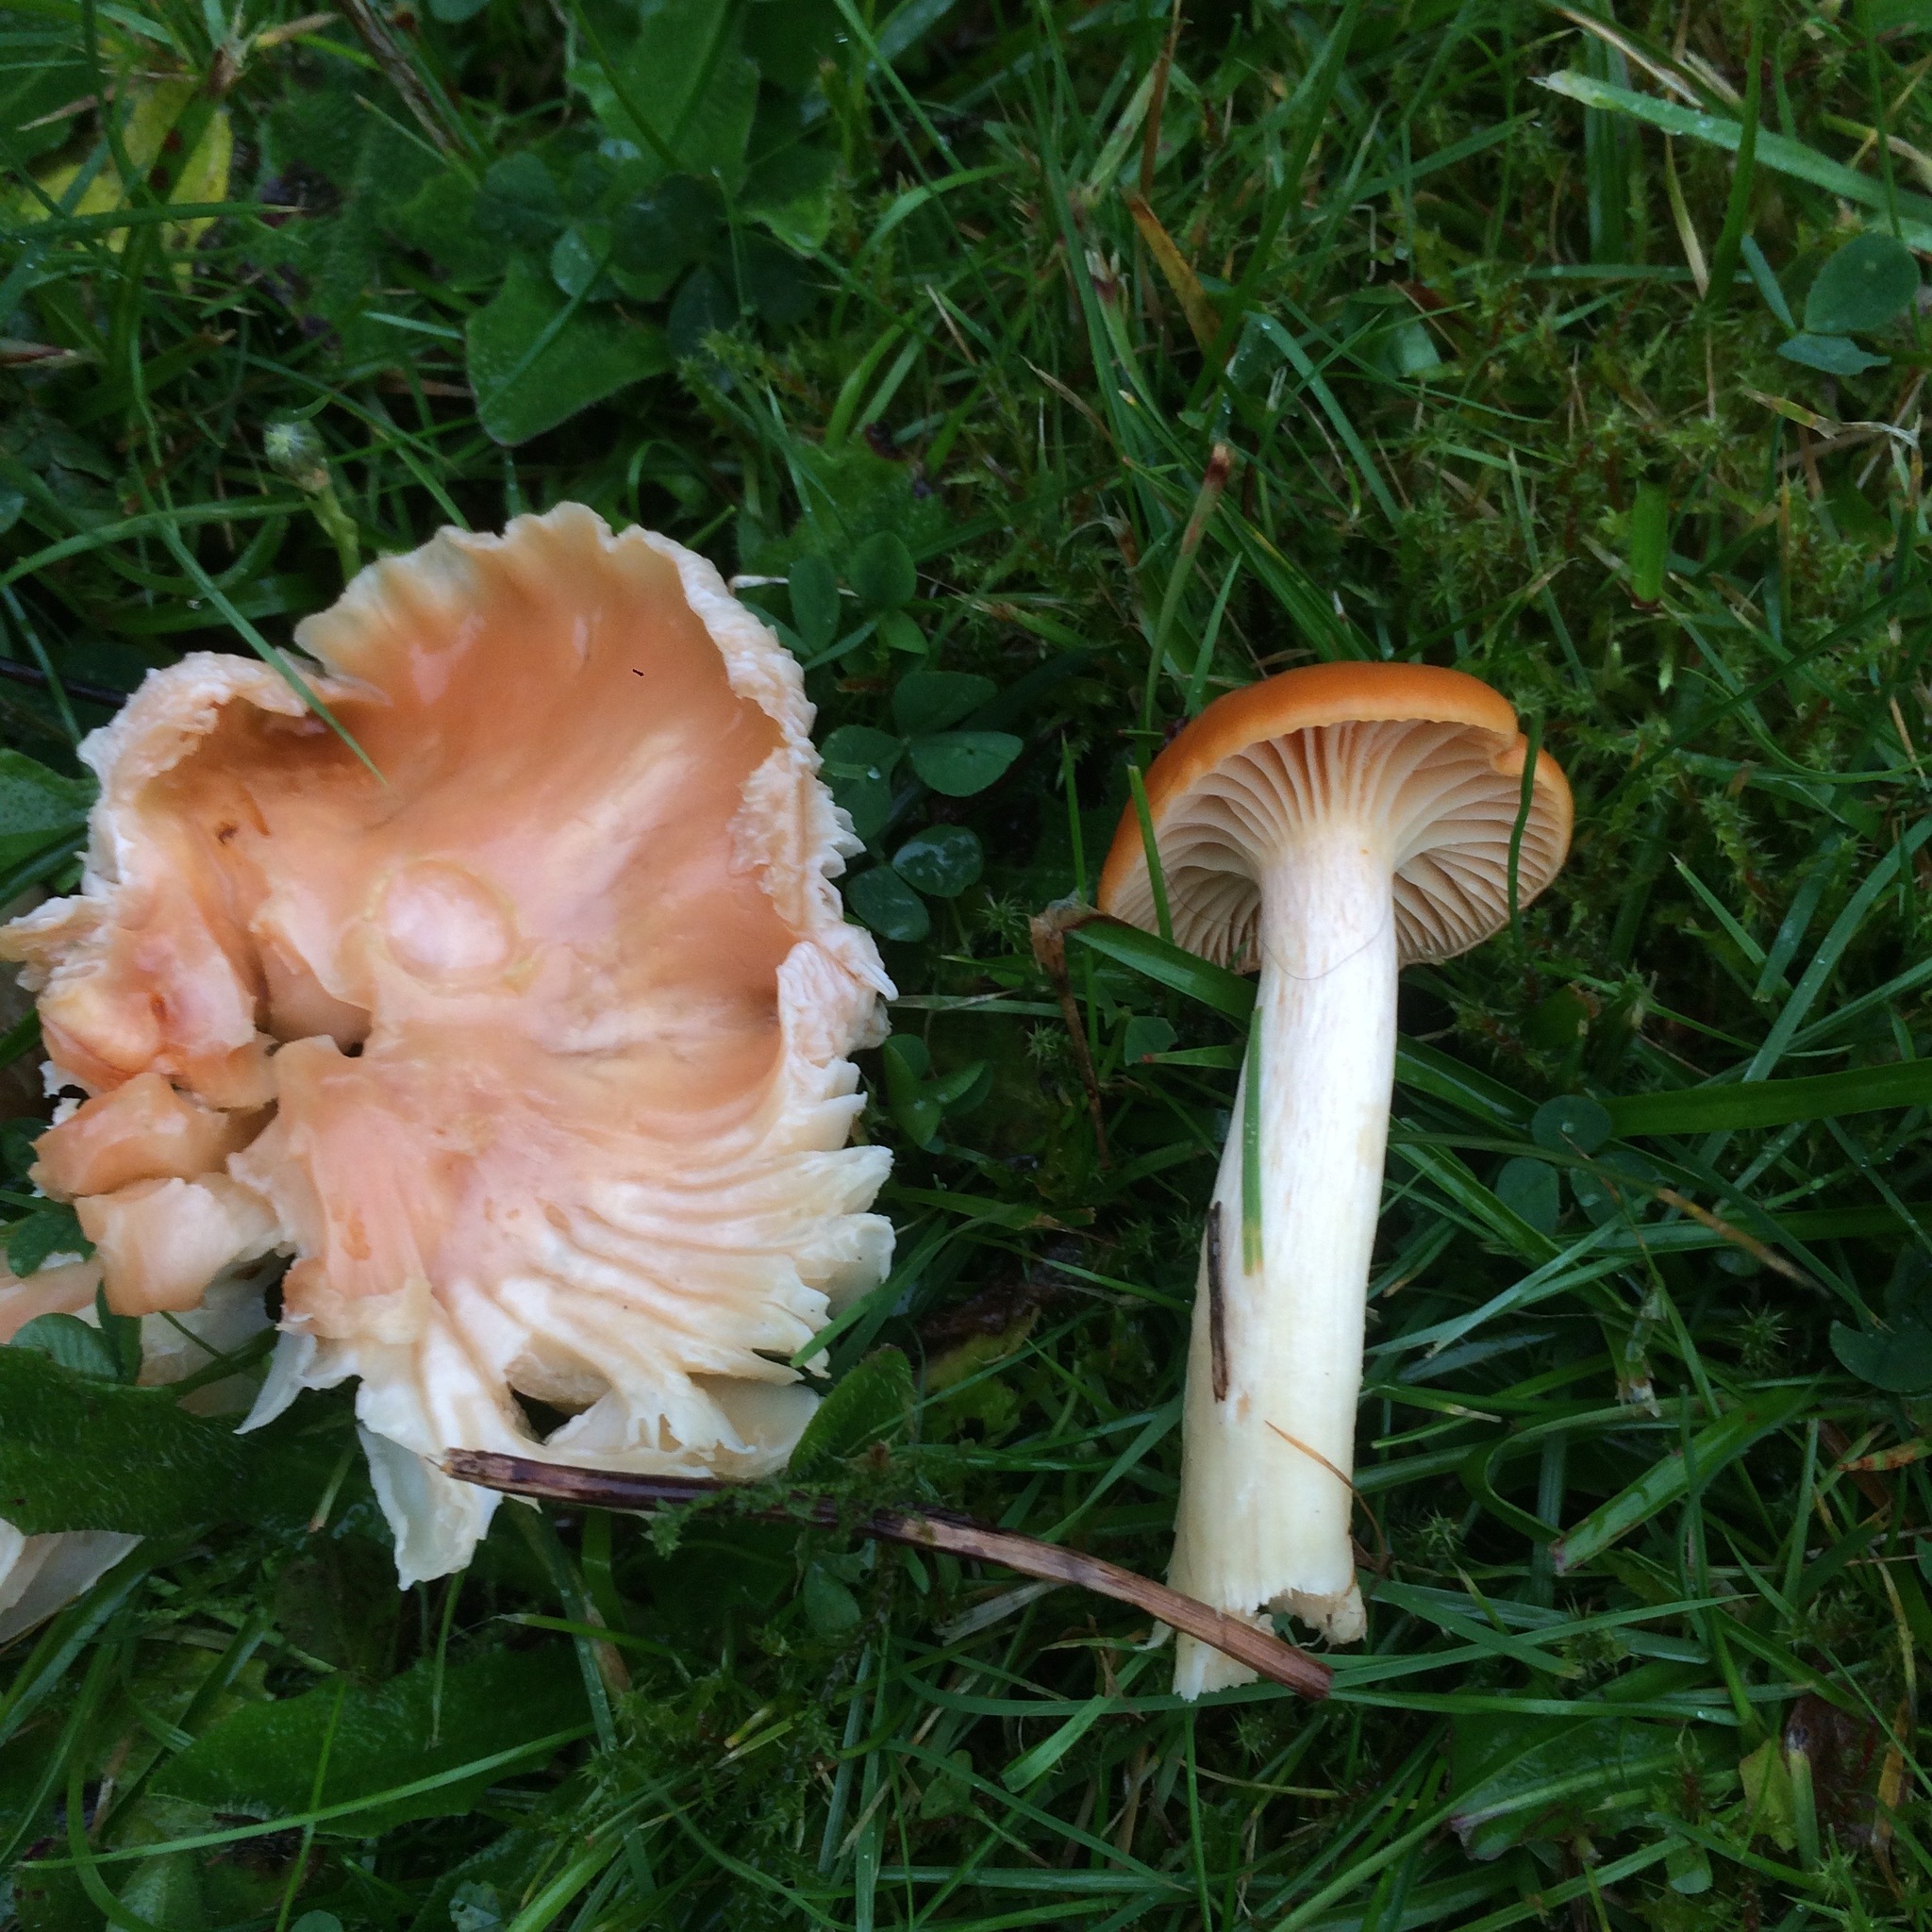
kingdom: Fungi
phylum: Basidiomycota
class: Agaricomycetes
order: Agaricales
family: Hygrophoraceae
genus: Cuphophyllus
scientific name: Cuphophyllus pratensis
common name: Meadow waxcap
